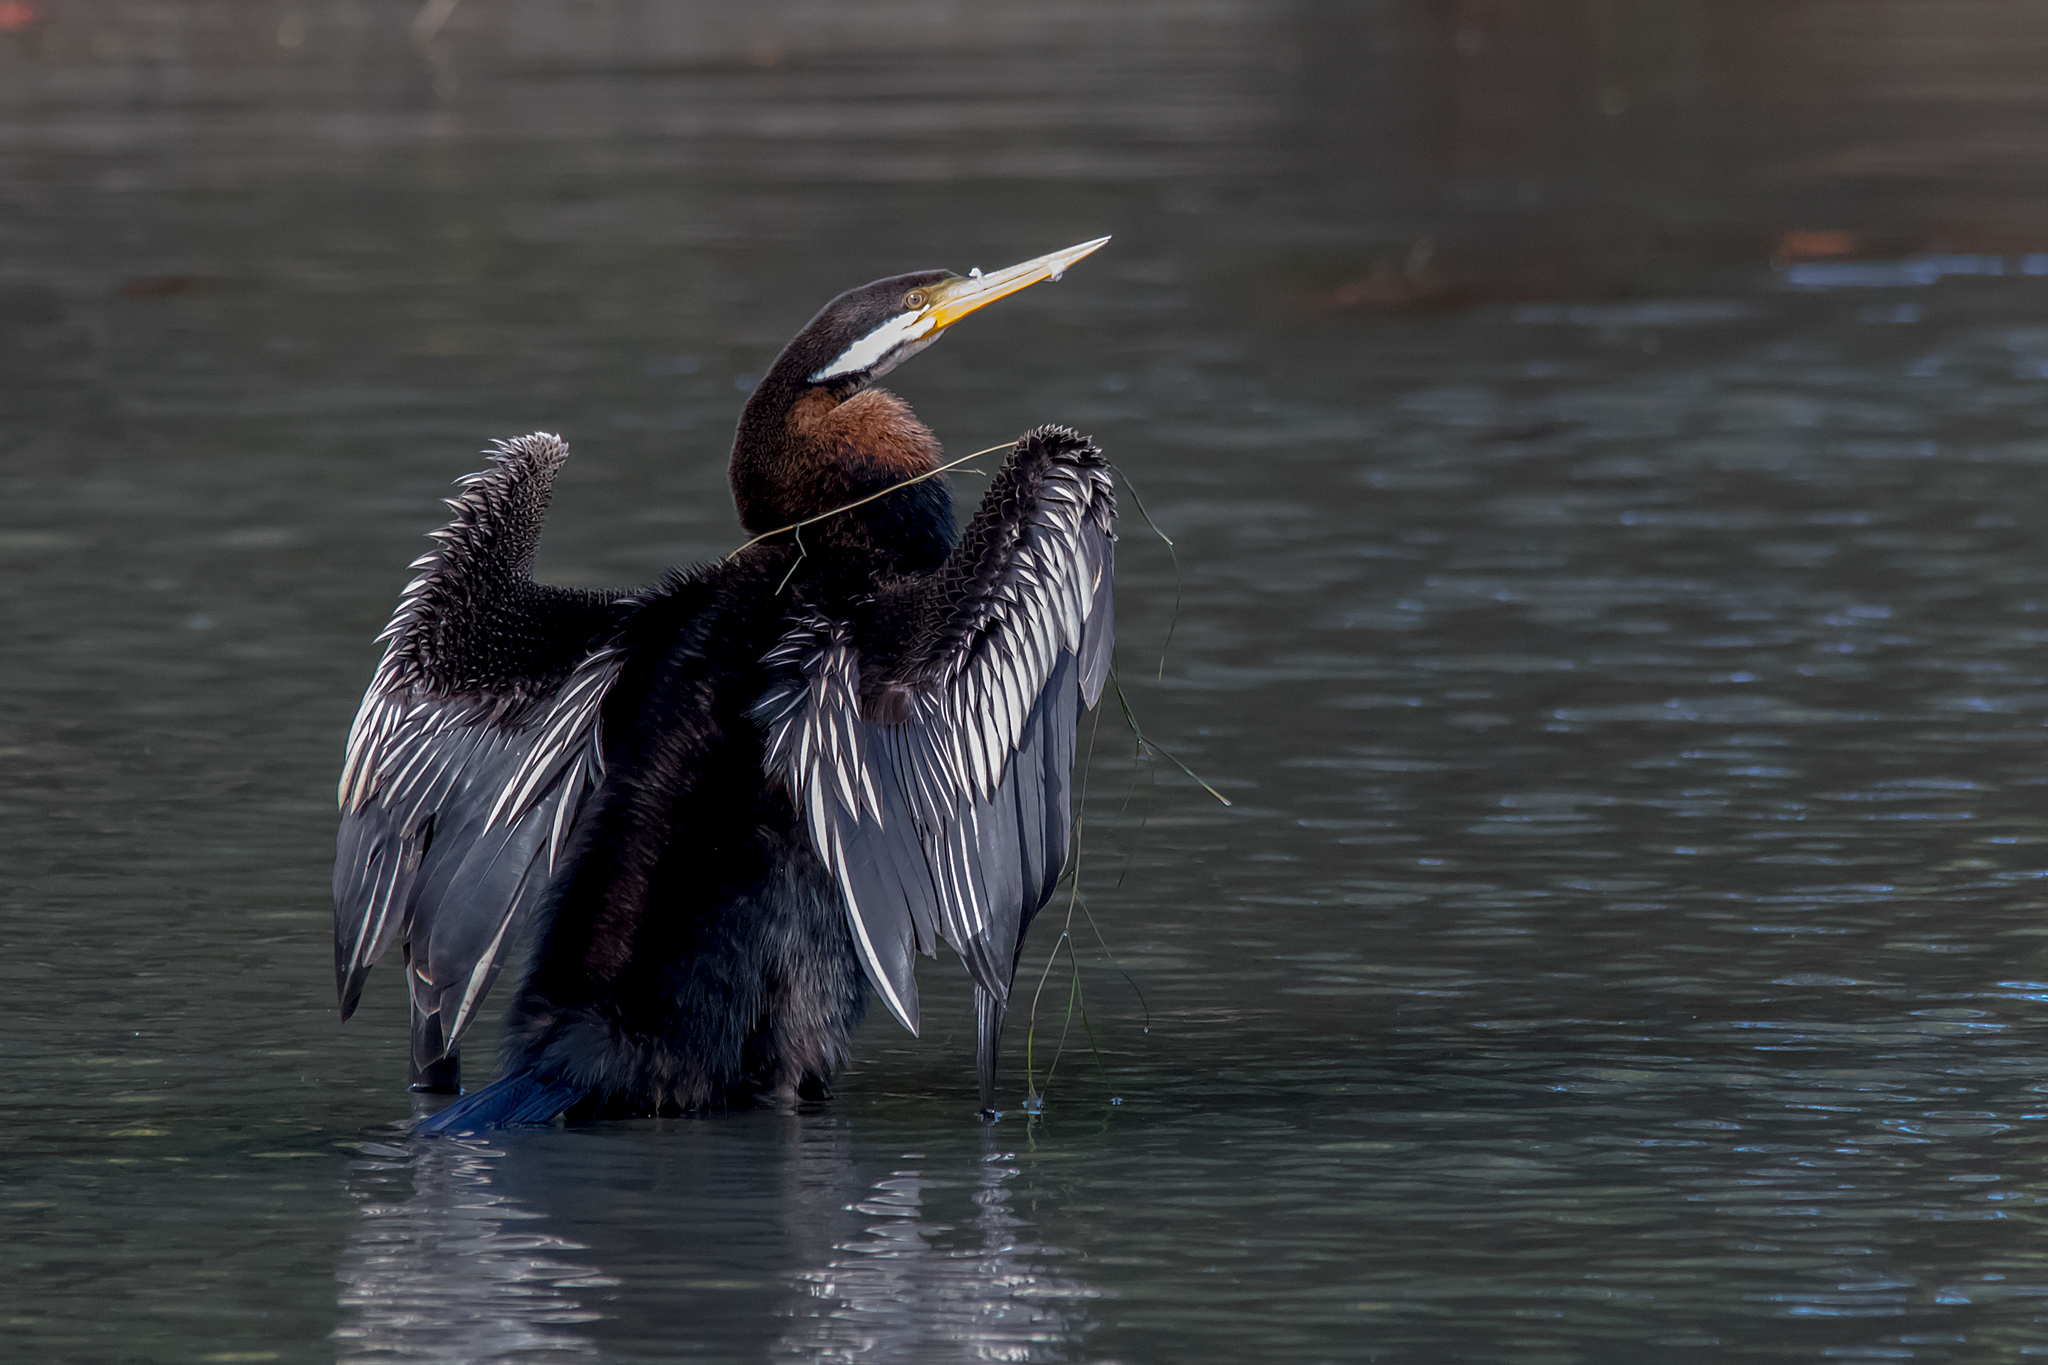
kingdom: Animalia
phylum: Chordata
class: Aves
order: Suliformes
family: Anhingidae
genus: Anhinga
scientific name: Anhinga novaehollandiae
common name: Australasian darter
